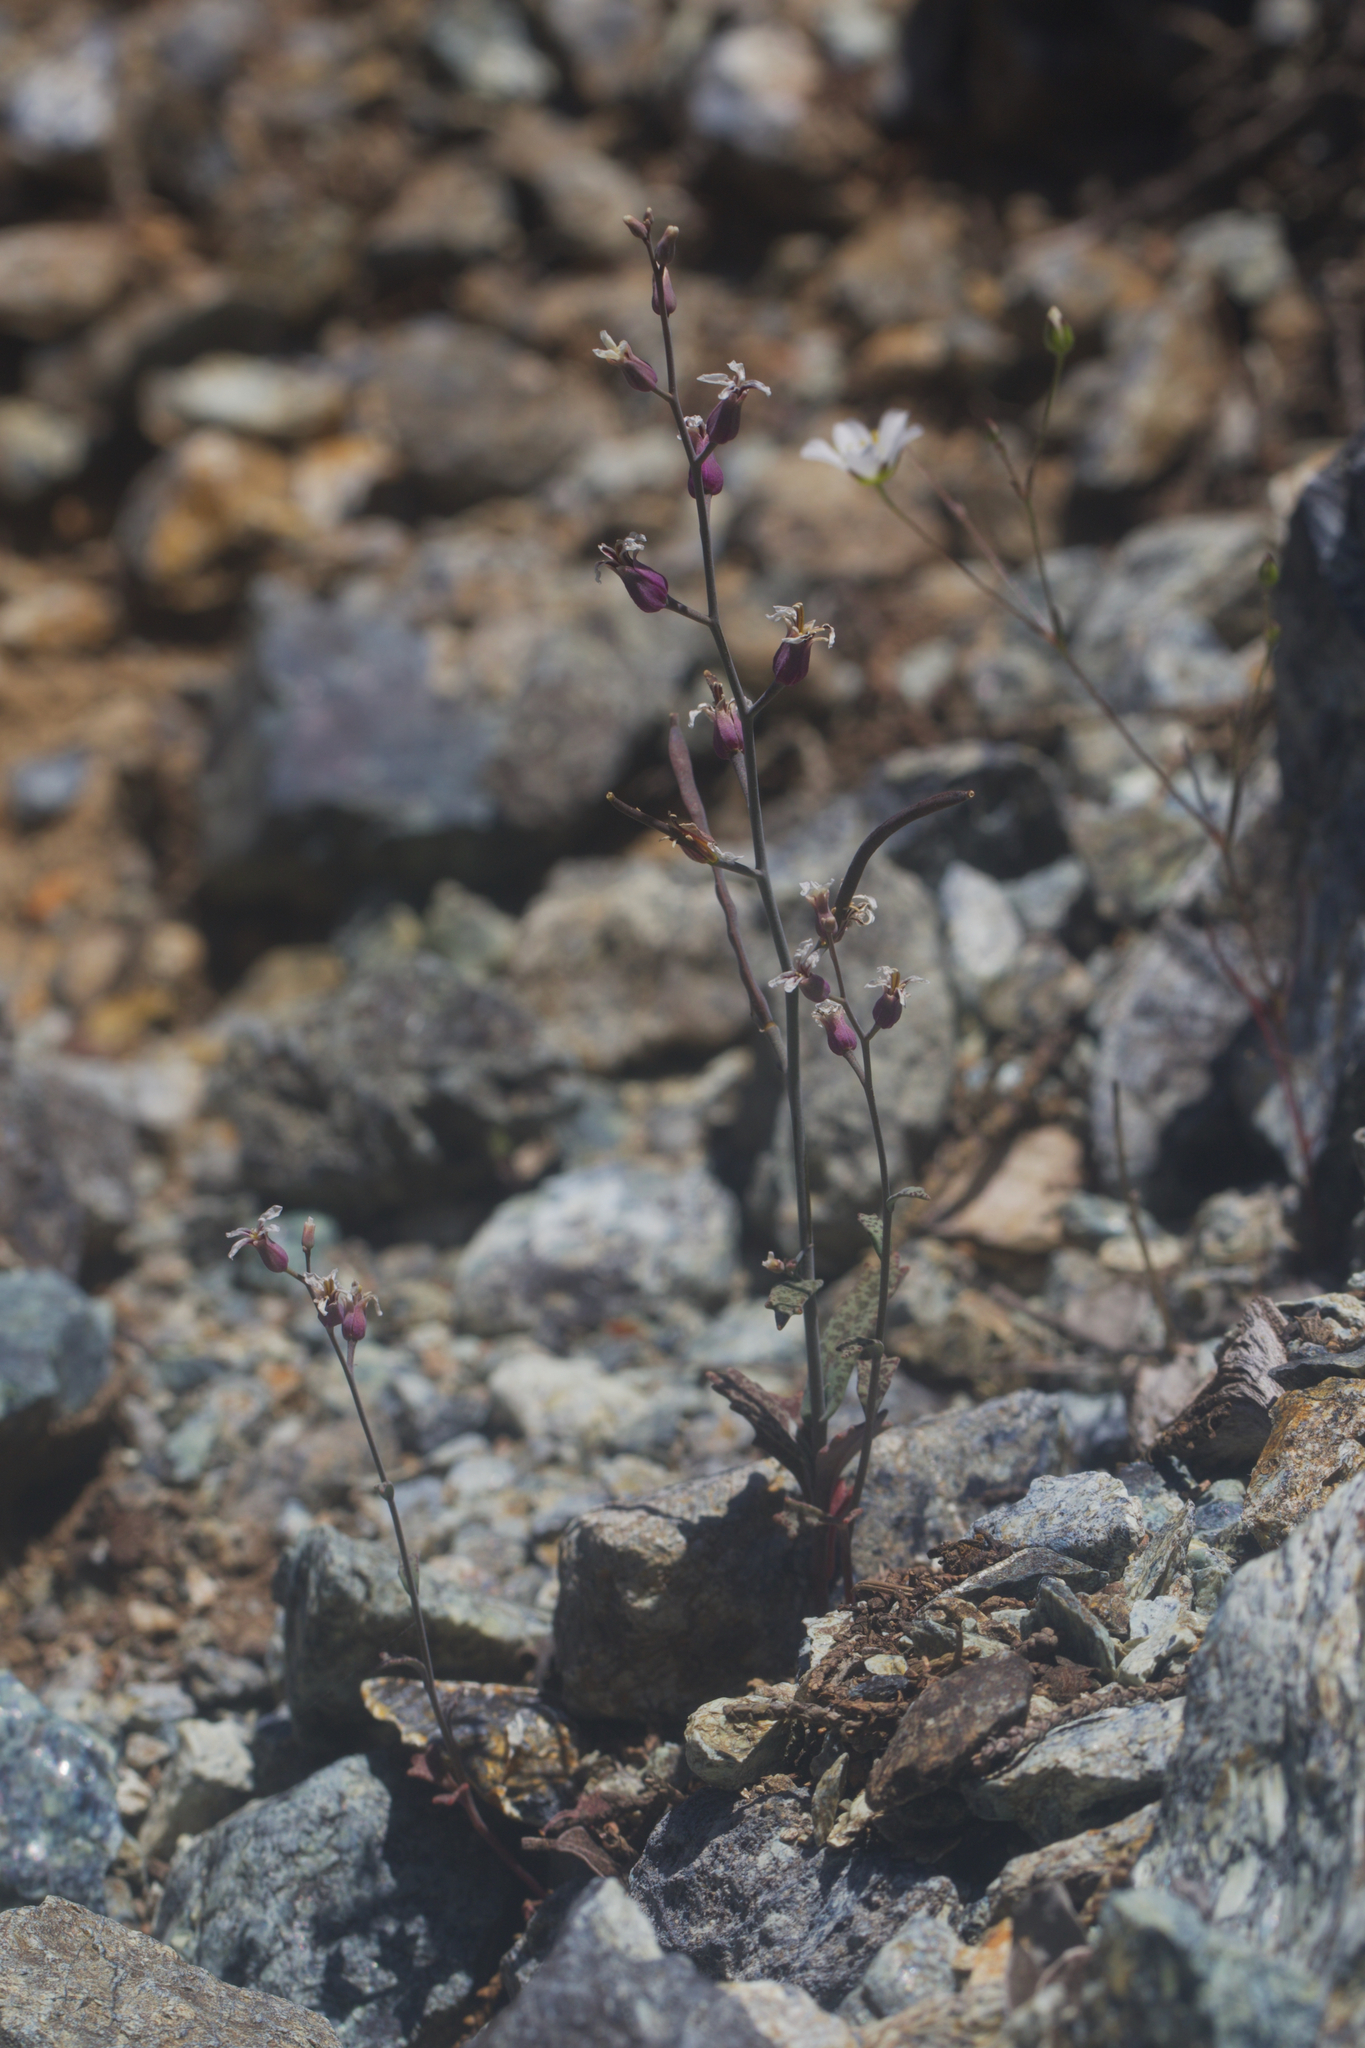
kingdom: Plantae
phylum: Tracheophyta
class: Magnoliopsida
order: Brassicales
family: Brassicaceae
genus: Streptanthus
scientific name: Streptanthus batrachopus
